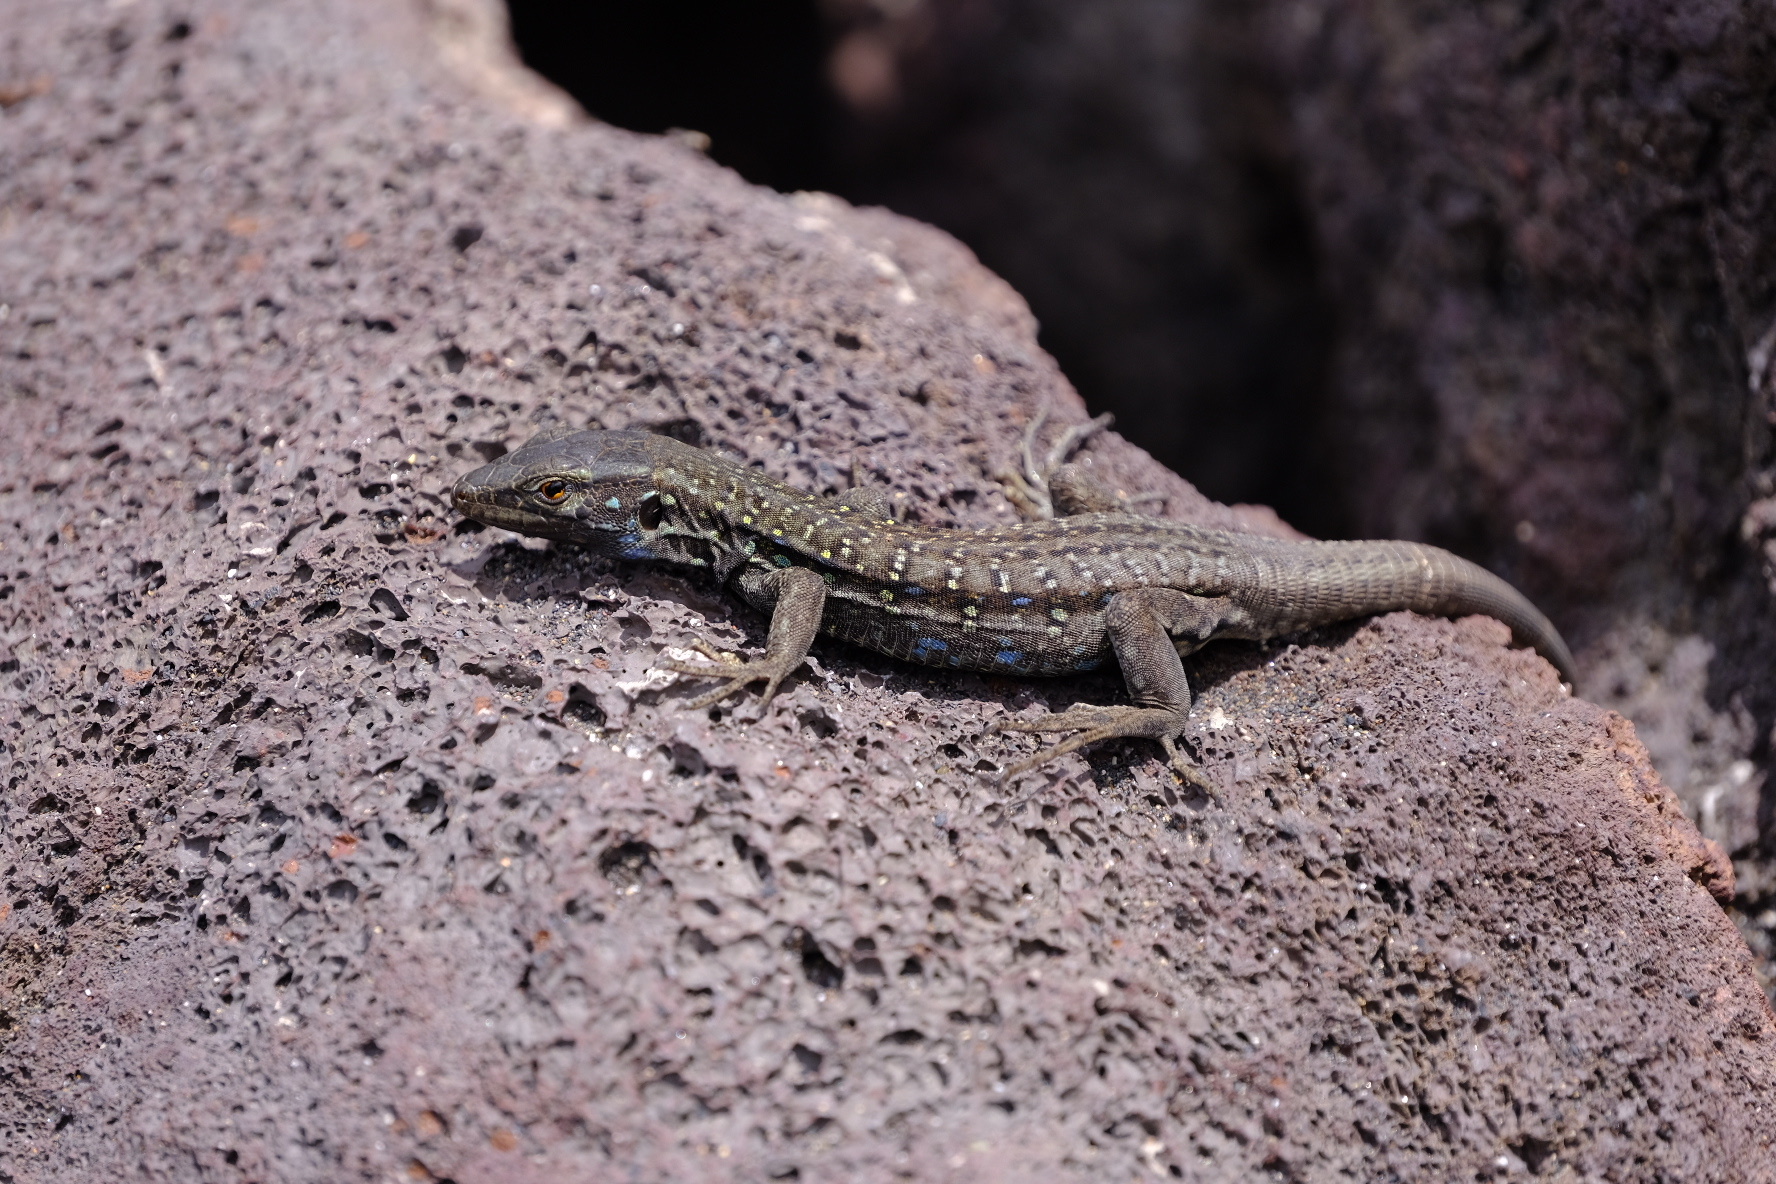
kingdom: Animalia
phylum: Chordata
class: Squamata
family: Lacertidae
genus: Gallotia
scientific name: Gallotia galloti
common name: Gallot's lizard
